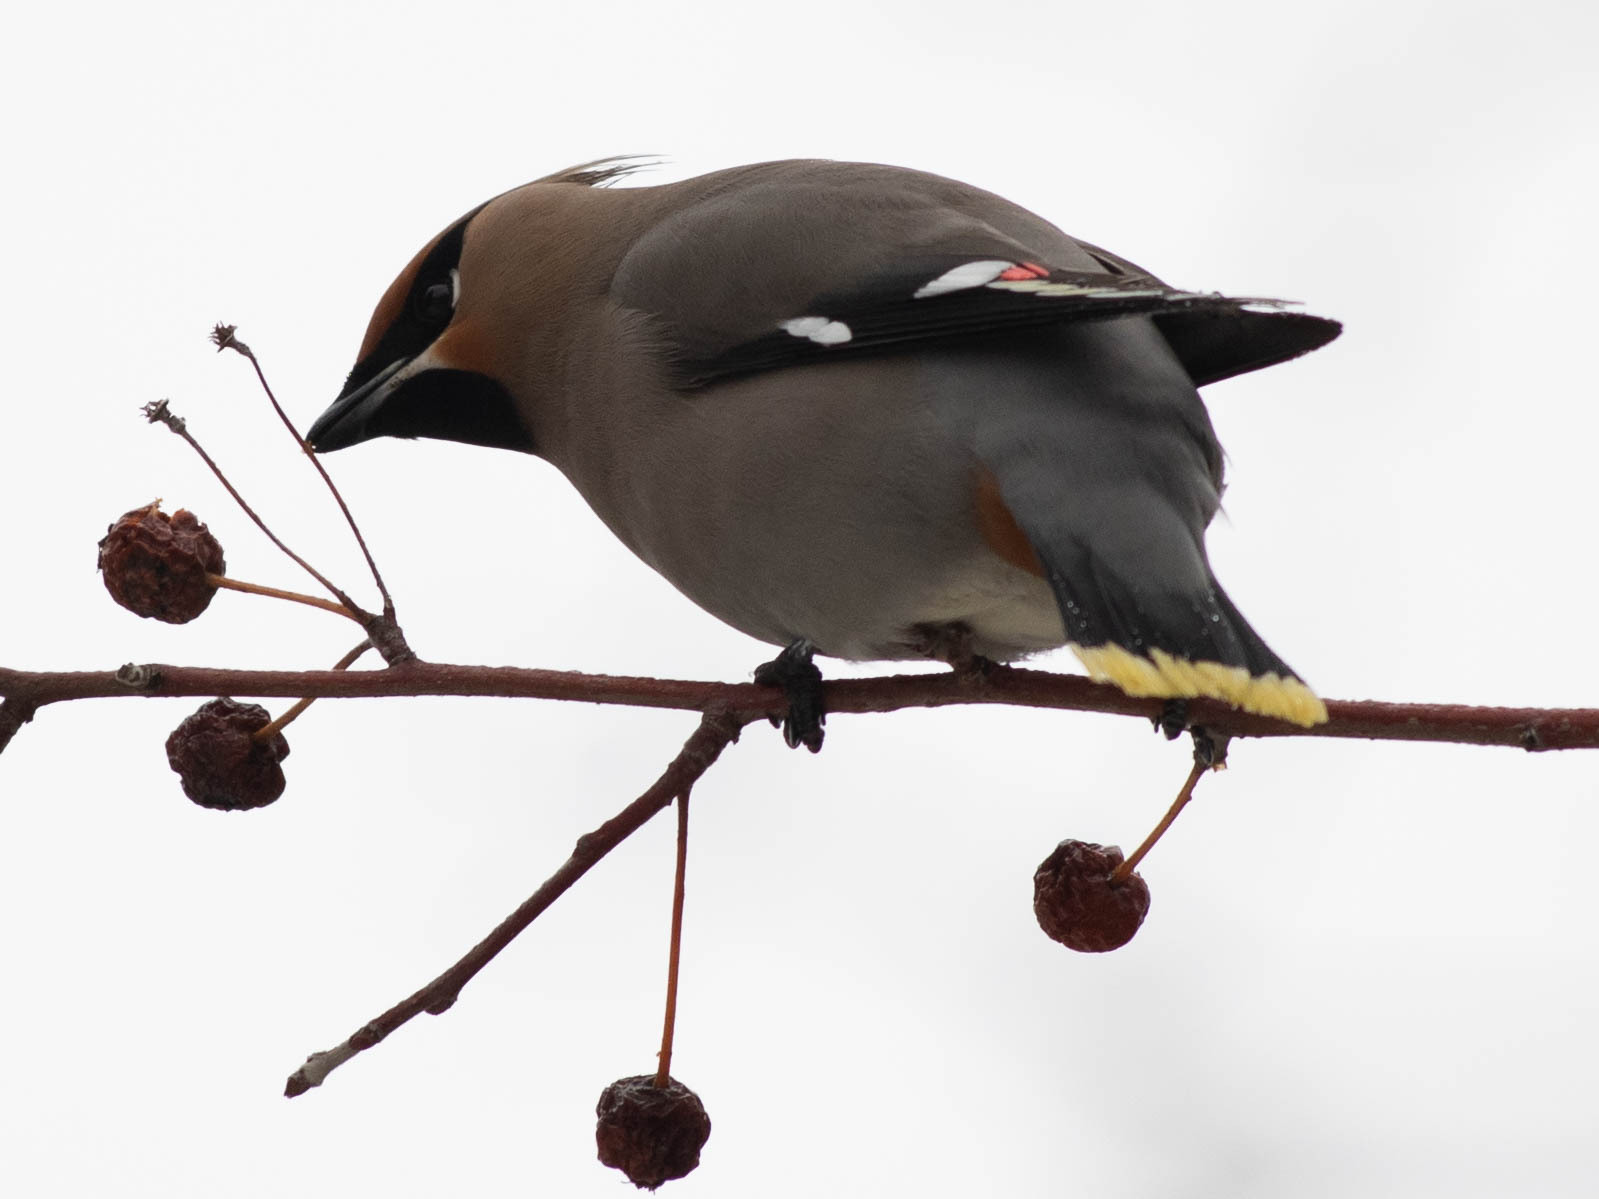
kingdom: Animalia
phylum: Chordata
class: Aves
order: Passeriformes
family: Bombycillidae
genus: Bombycilla
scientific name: Bombycilla garrulus
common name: Bohemian waxwing
